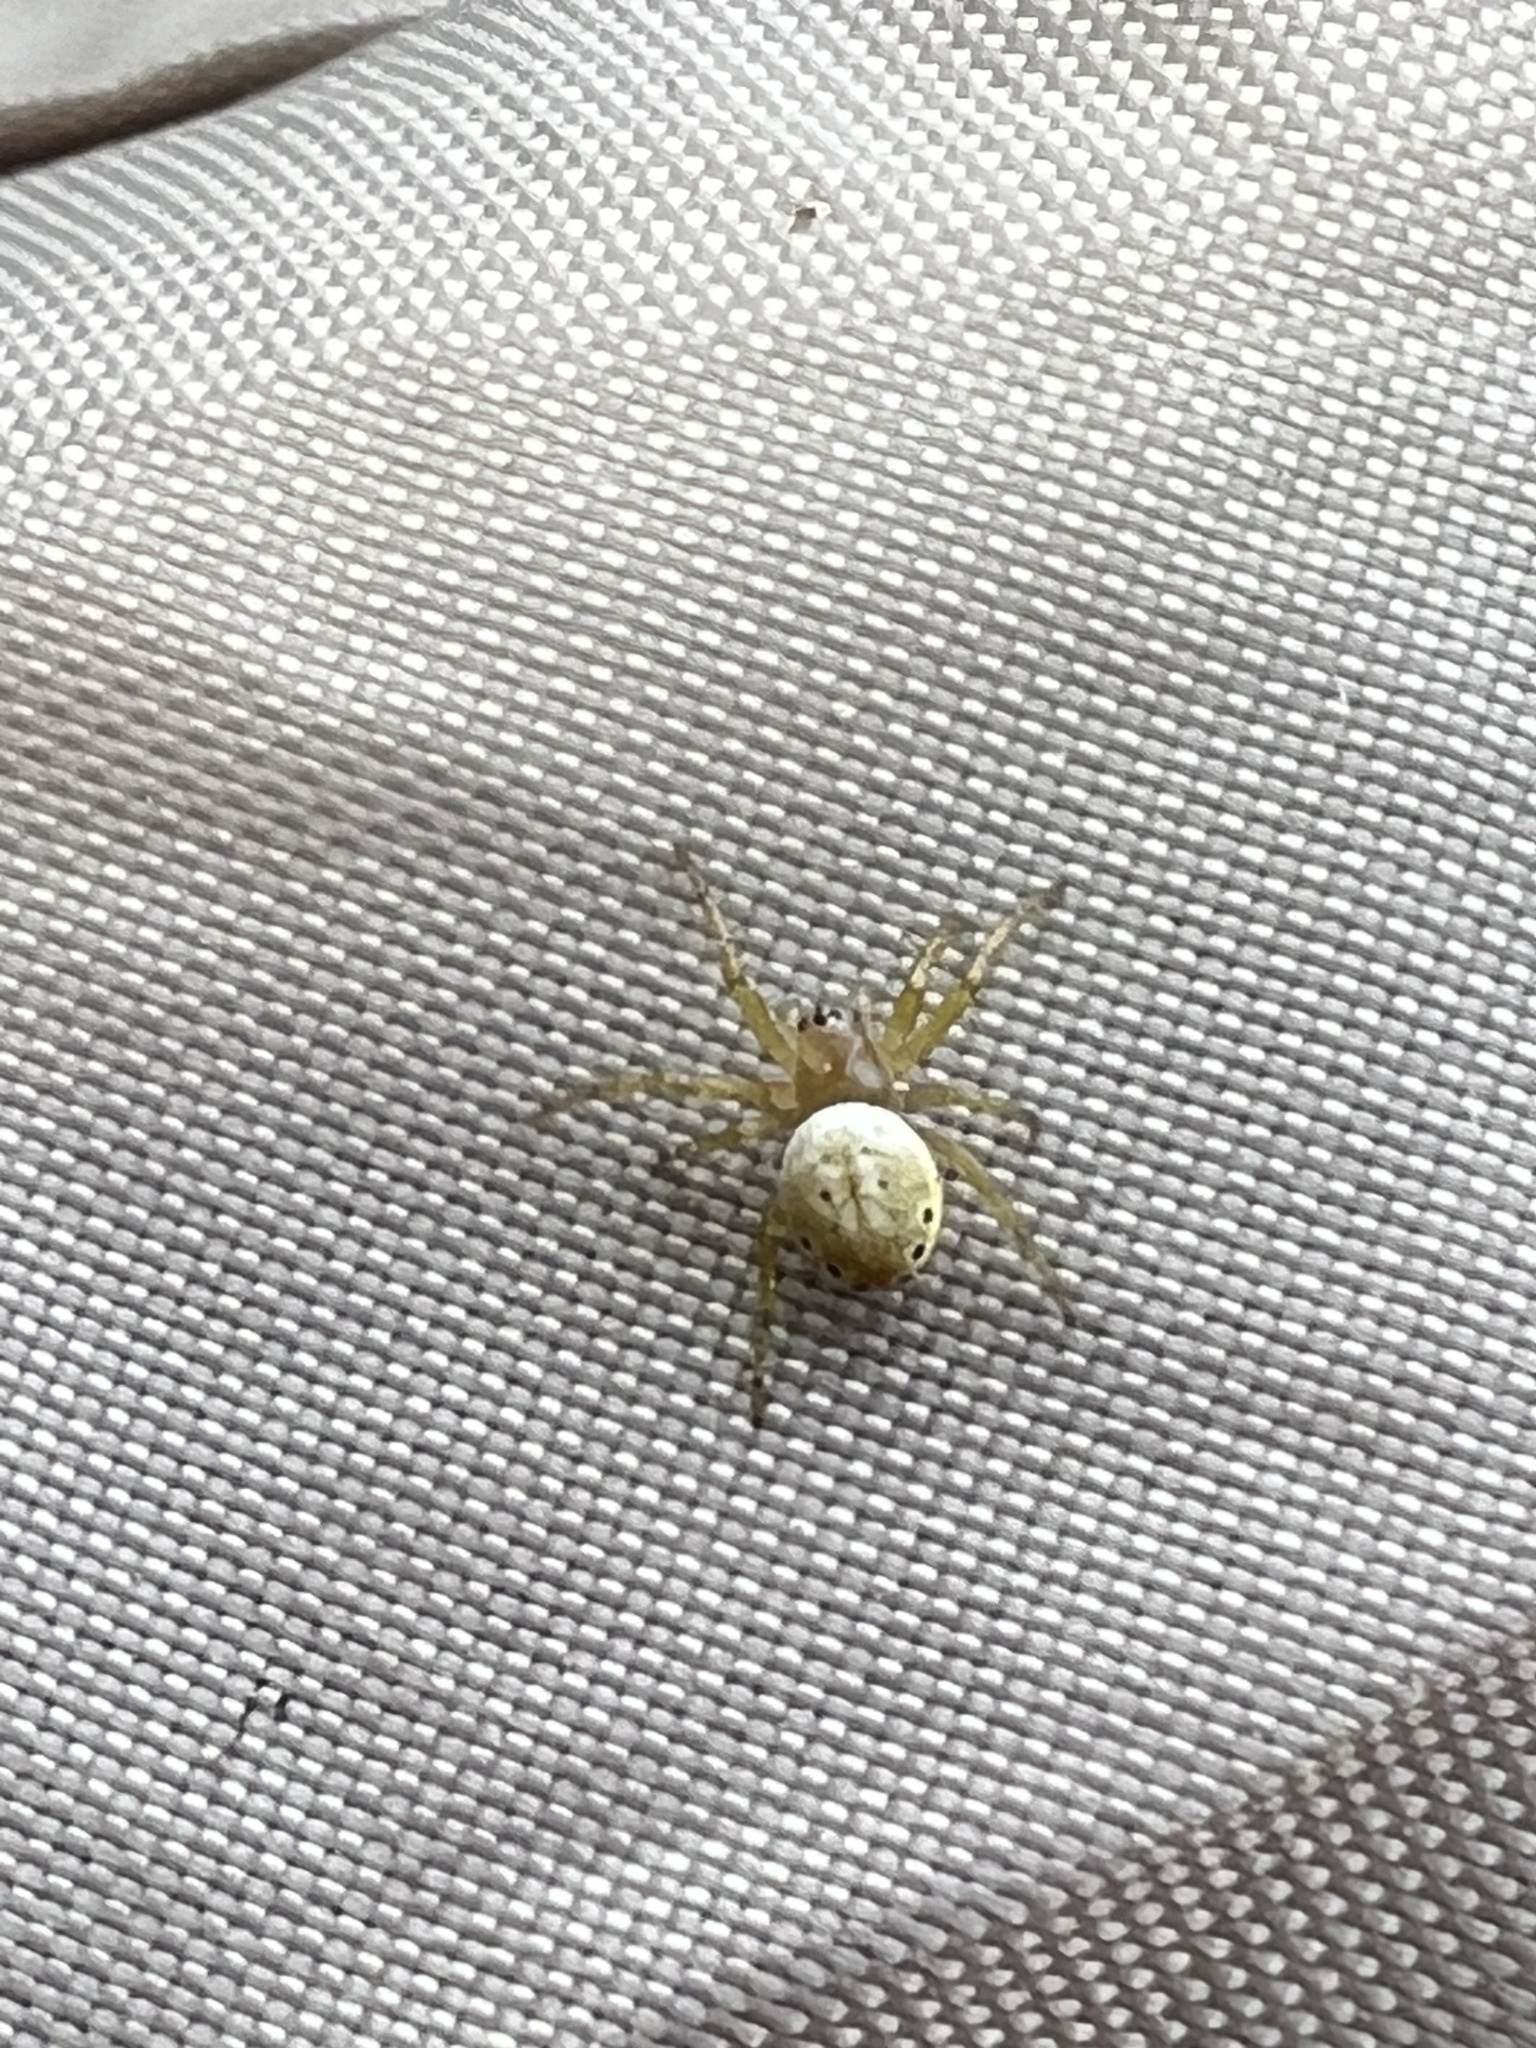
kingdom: Animalia
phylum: Arthropoda
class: Arachnida
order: Araneae
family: Araneidae
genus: Araniella
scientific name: Araniella displicata
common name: Sixspotted orb weaver
